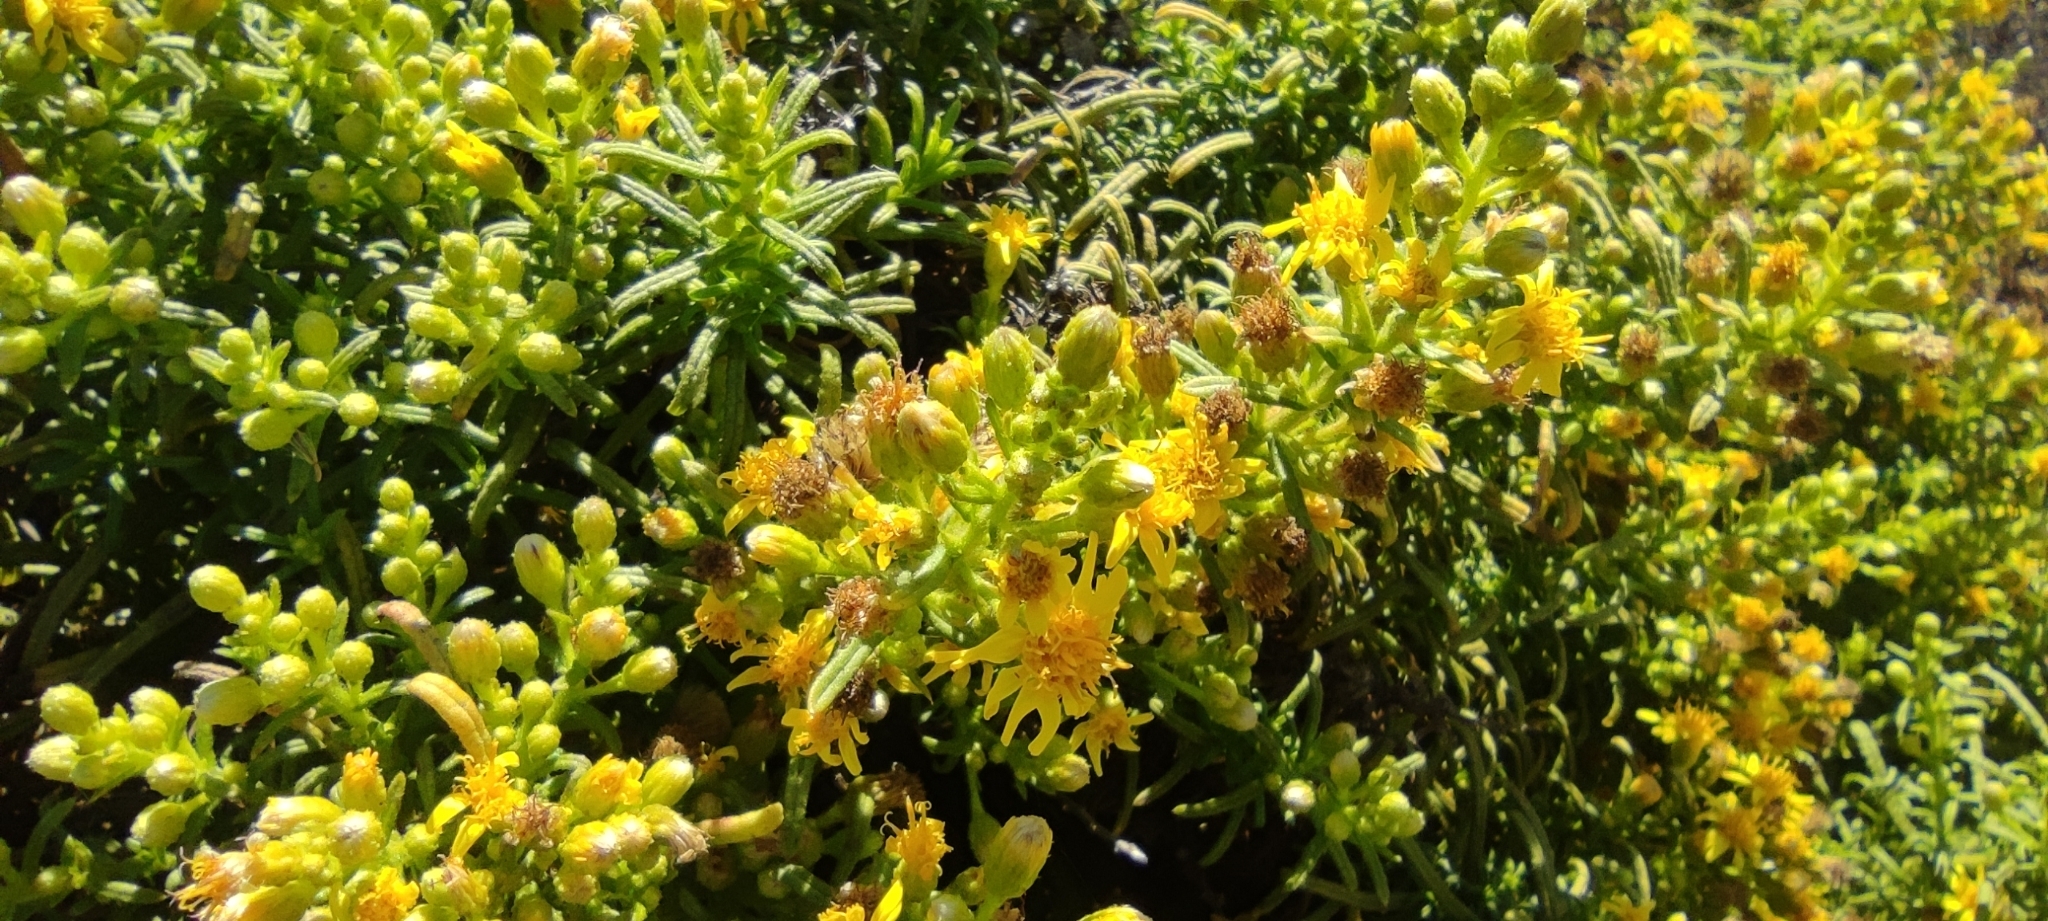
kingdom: Plantae
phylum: Tracheophyta
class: Magnoliopsida
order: Asterales
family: Asteraceae
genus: Dittrichia
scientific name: Dittrichia viscosa
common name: Woody fleabane
